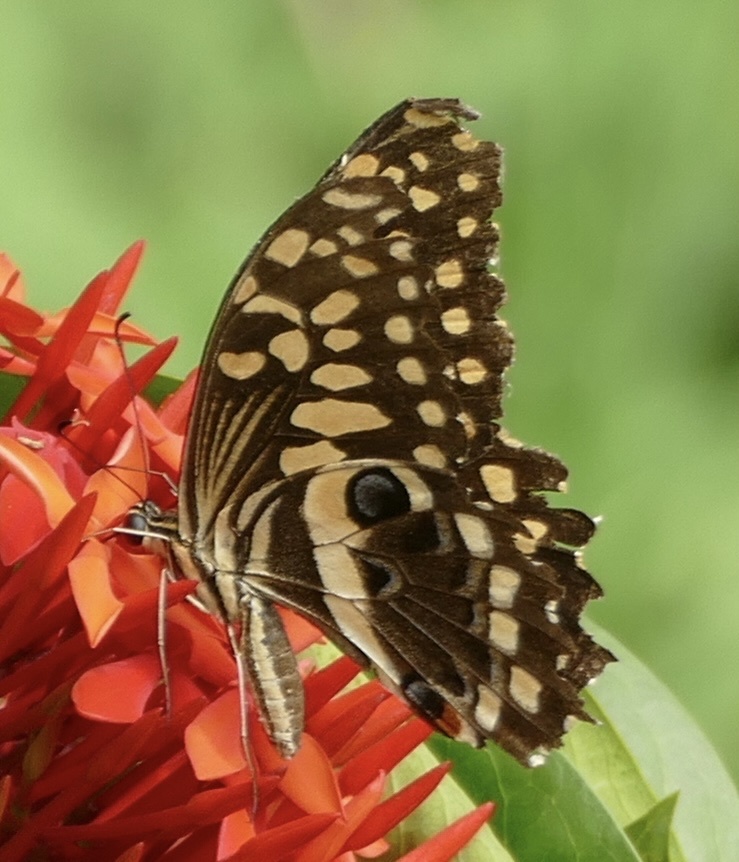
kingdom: Animalia
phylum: Arthropoda
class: Insecta
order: Lepidoptera
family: Papilionidae
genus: Papilio
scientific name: Papilio demodocus
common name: Christmas butterfly
